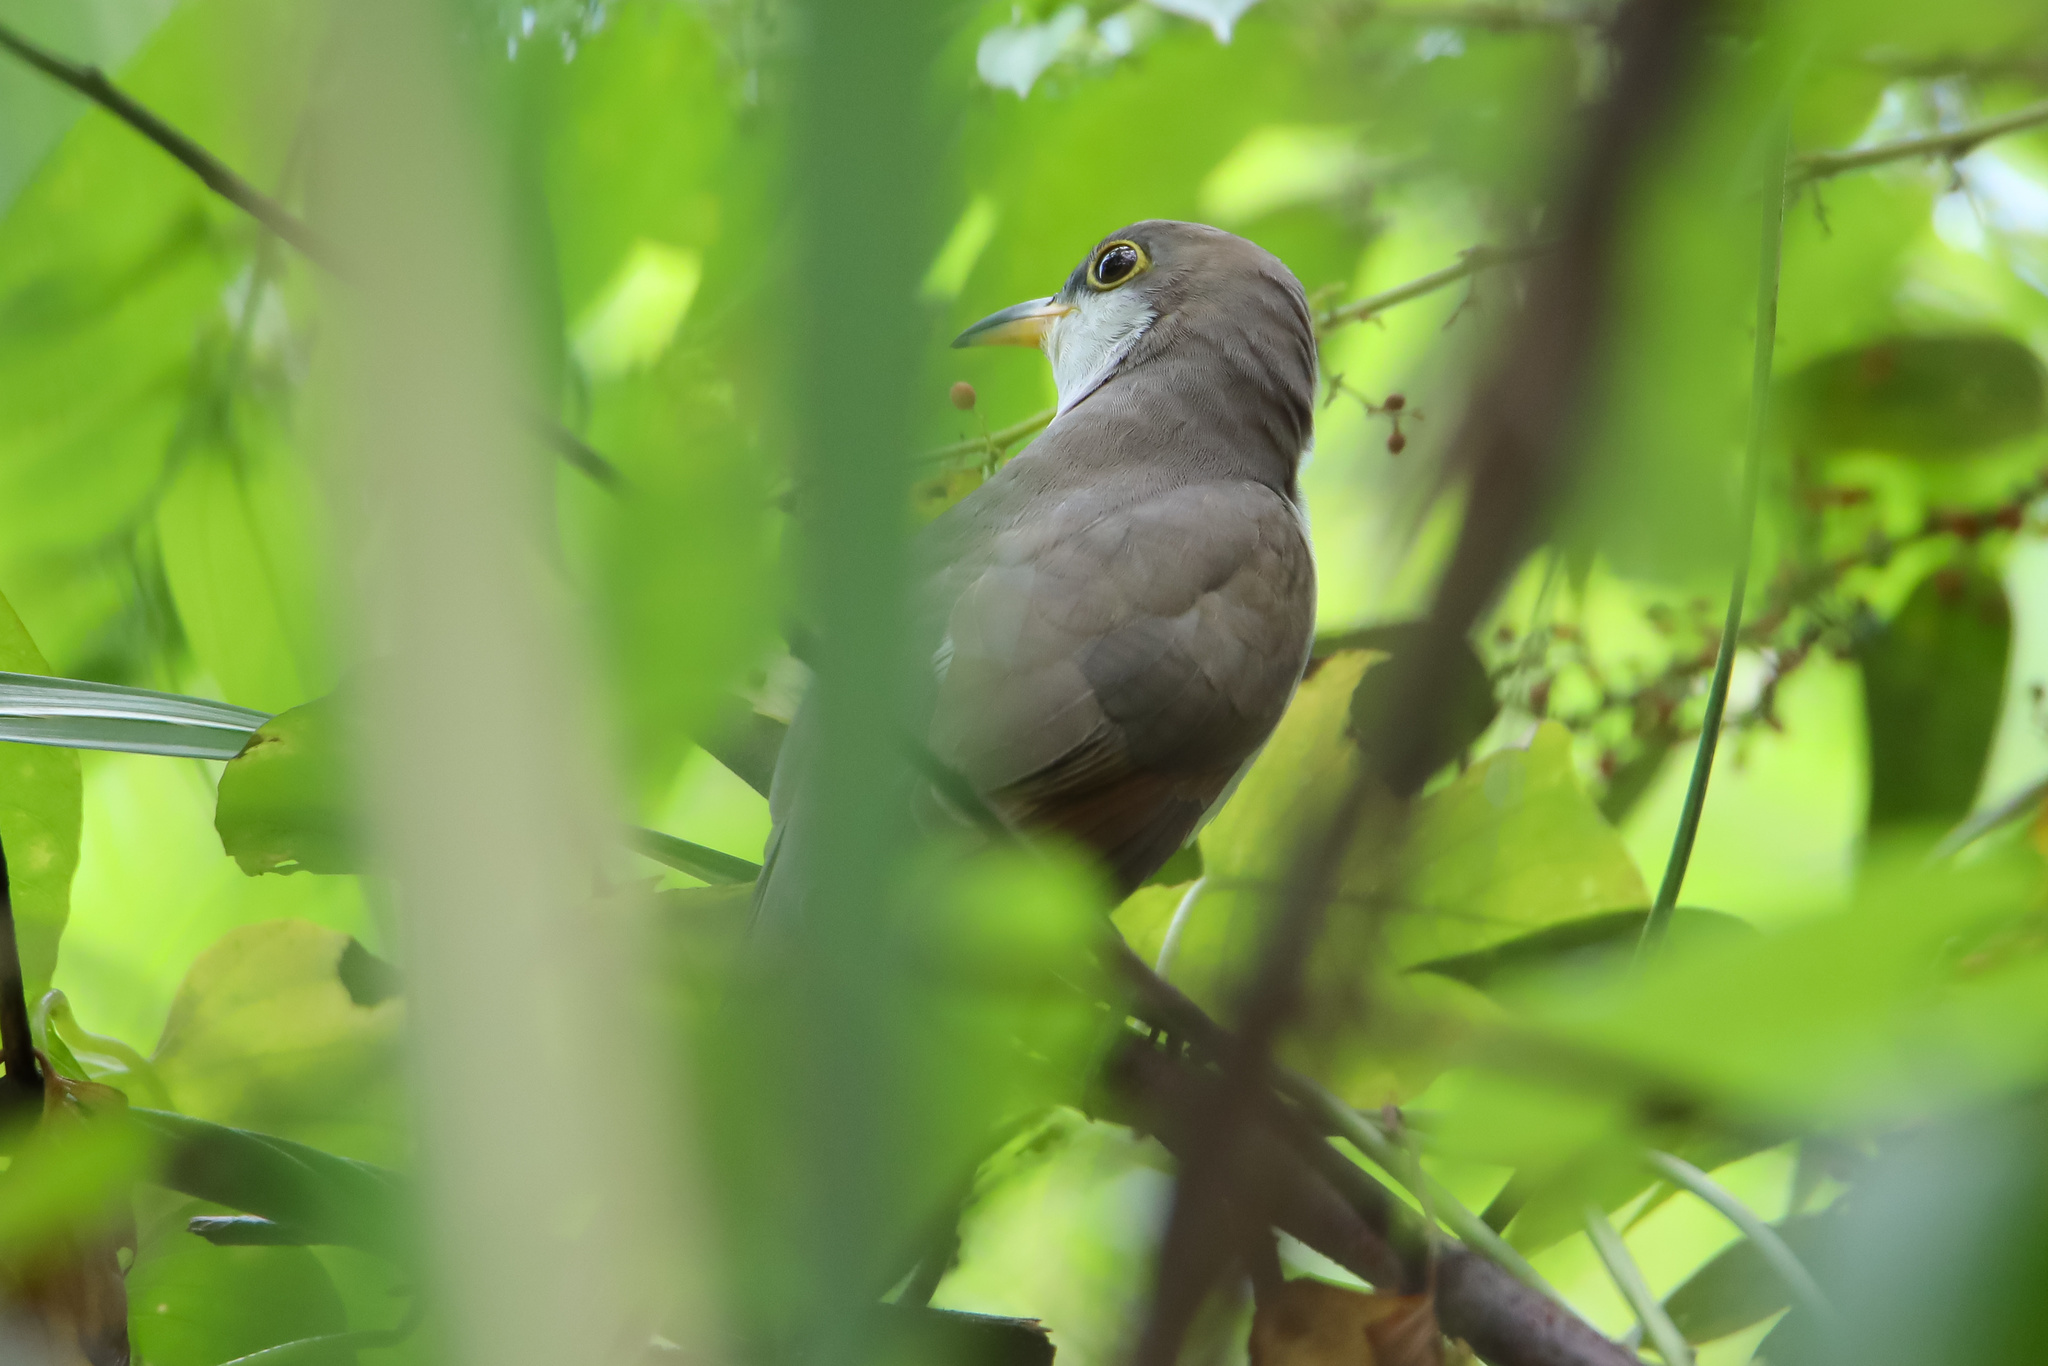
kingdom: Animalia
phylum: Chordata
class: Aves
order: Cuculiformes
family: Cuculidae
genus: Coccyzus
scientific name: Coccyzus americanus
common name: Yellow-billed cuckoo
